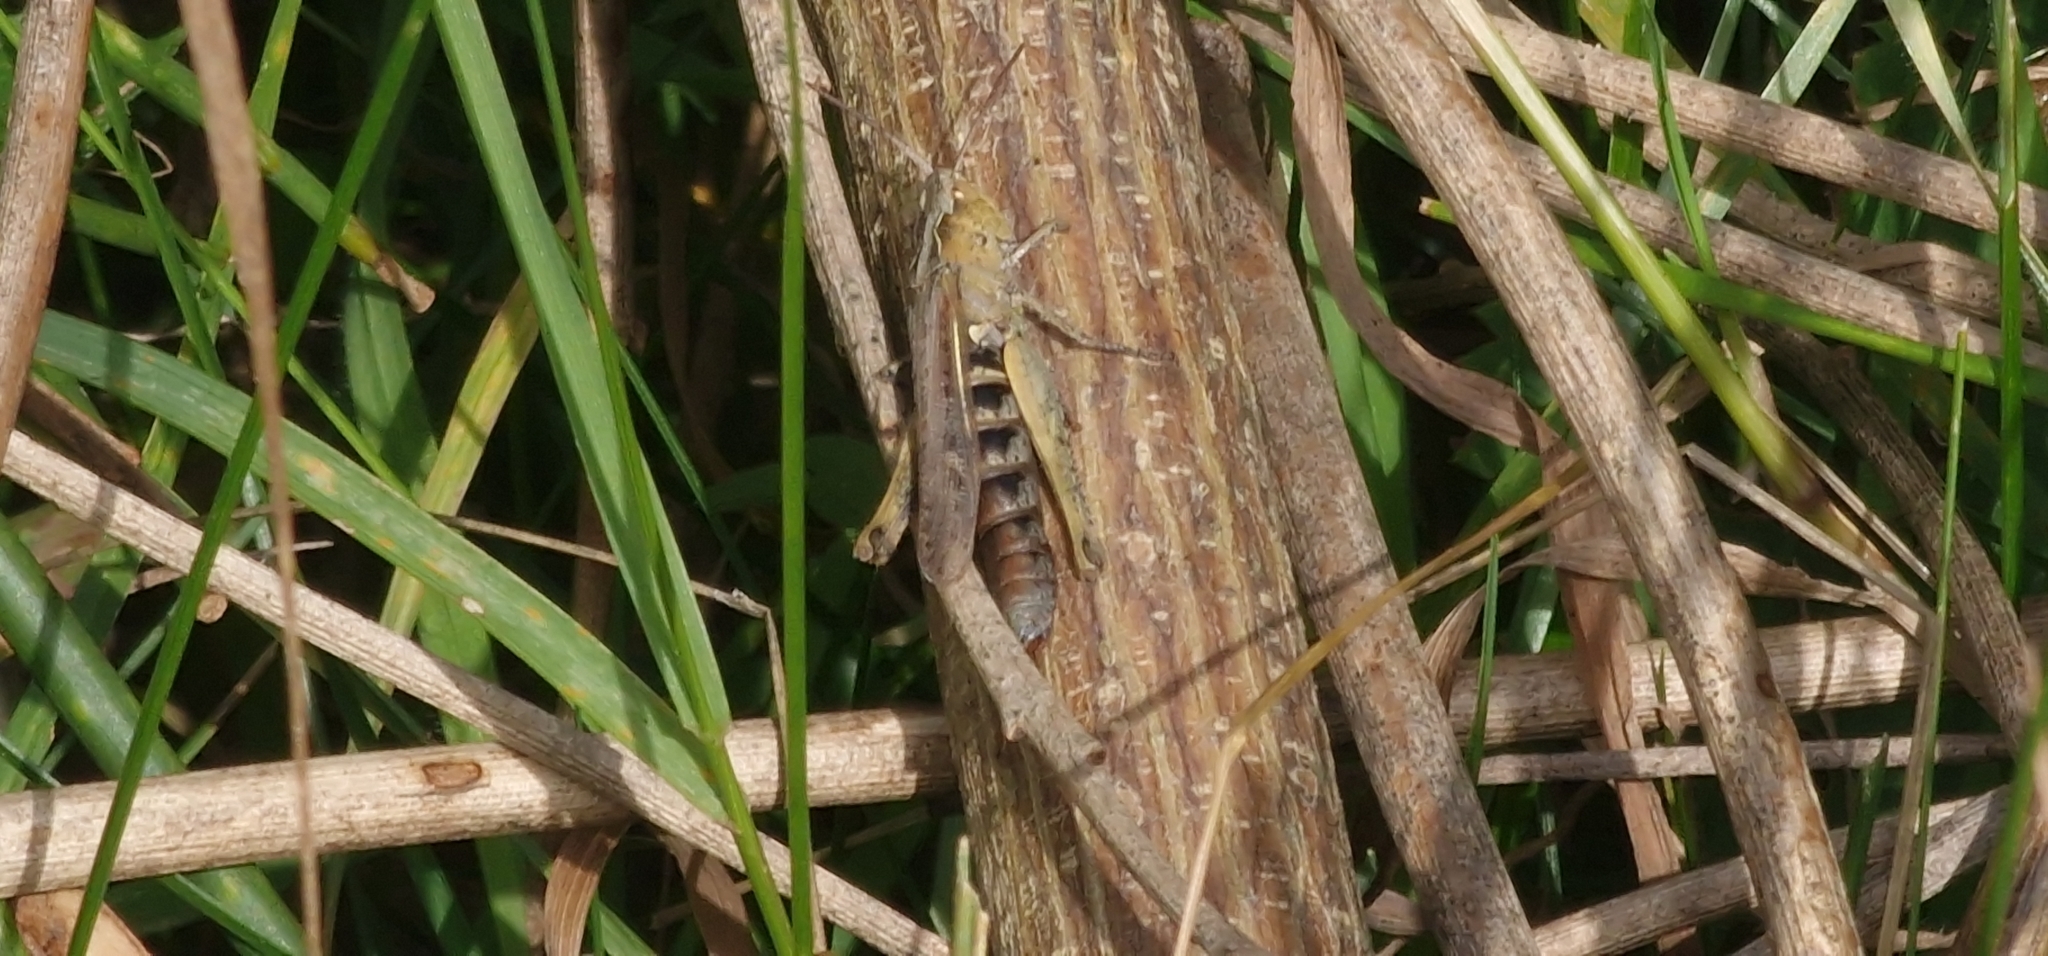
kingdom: Animalia
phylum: Arthropoda
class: Insecta
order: Orthoptera
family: Acrididae
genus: Chorthippus
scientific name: Chorthippus brunneus
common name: Field grasshopper
